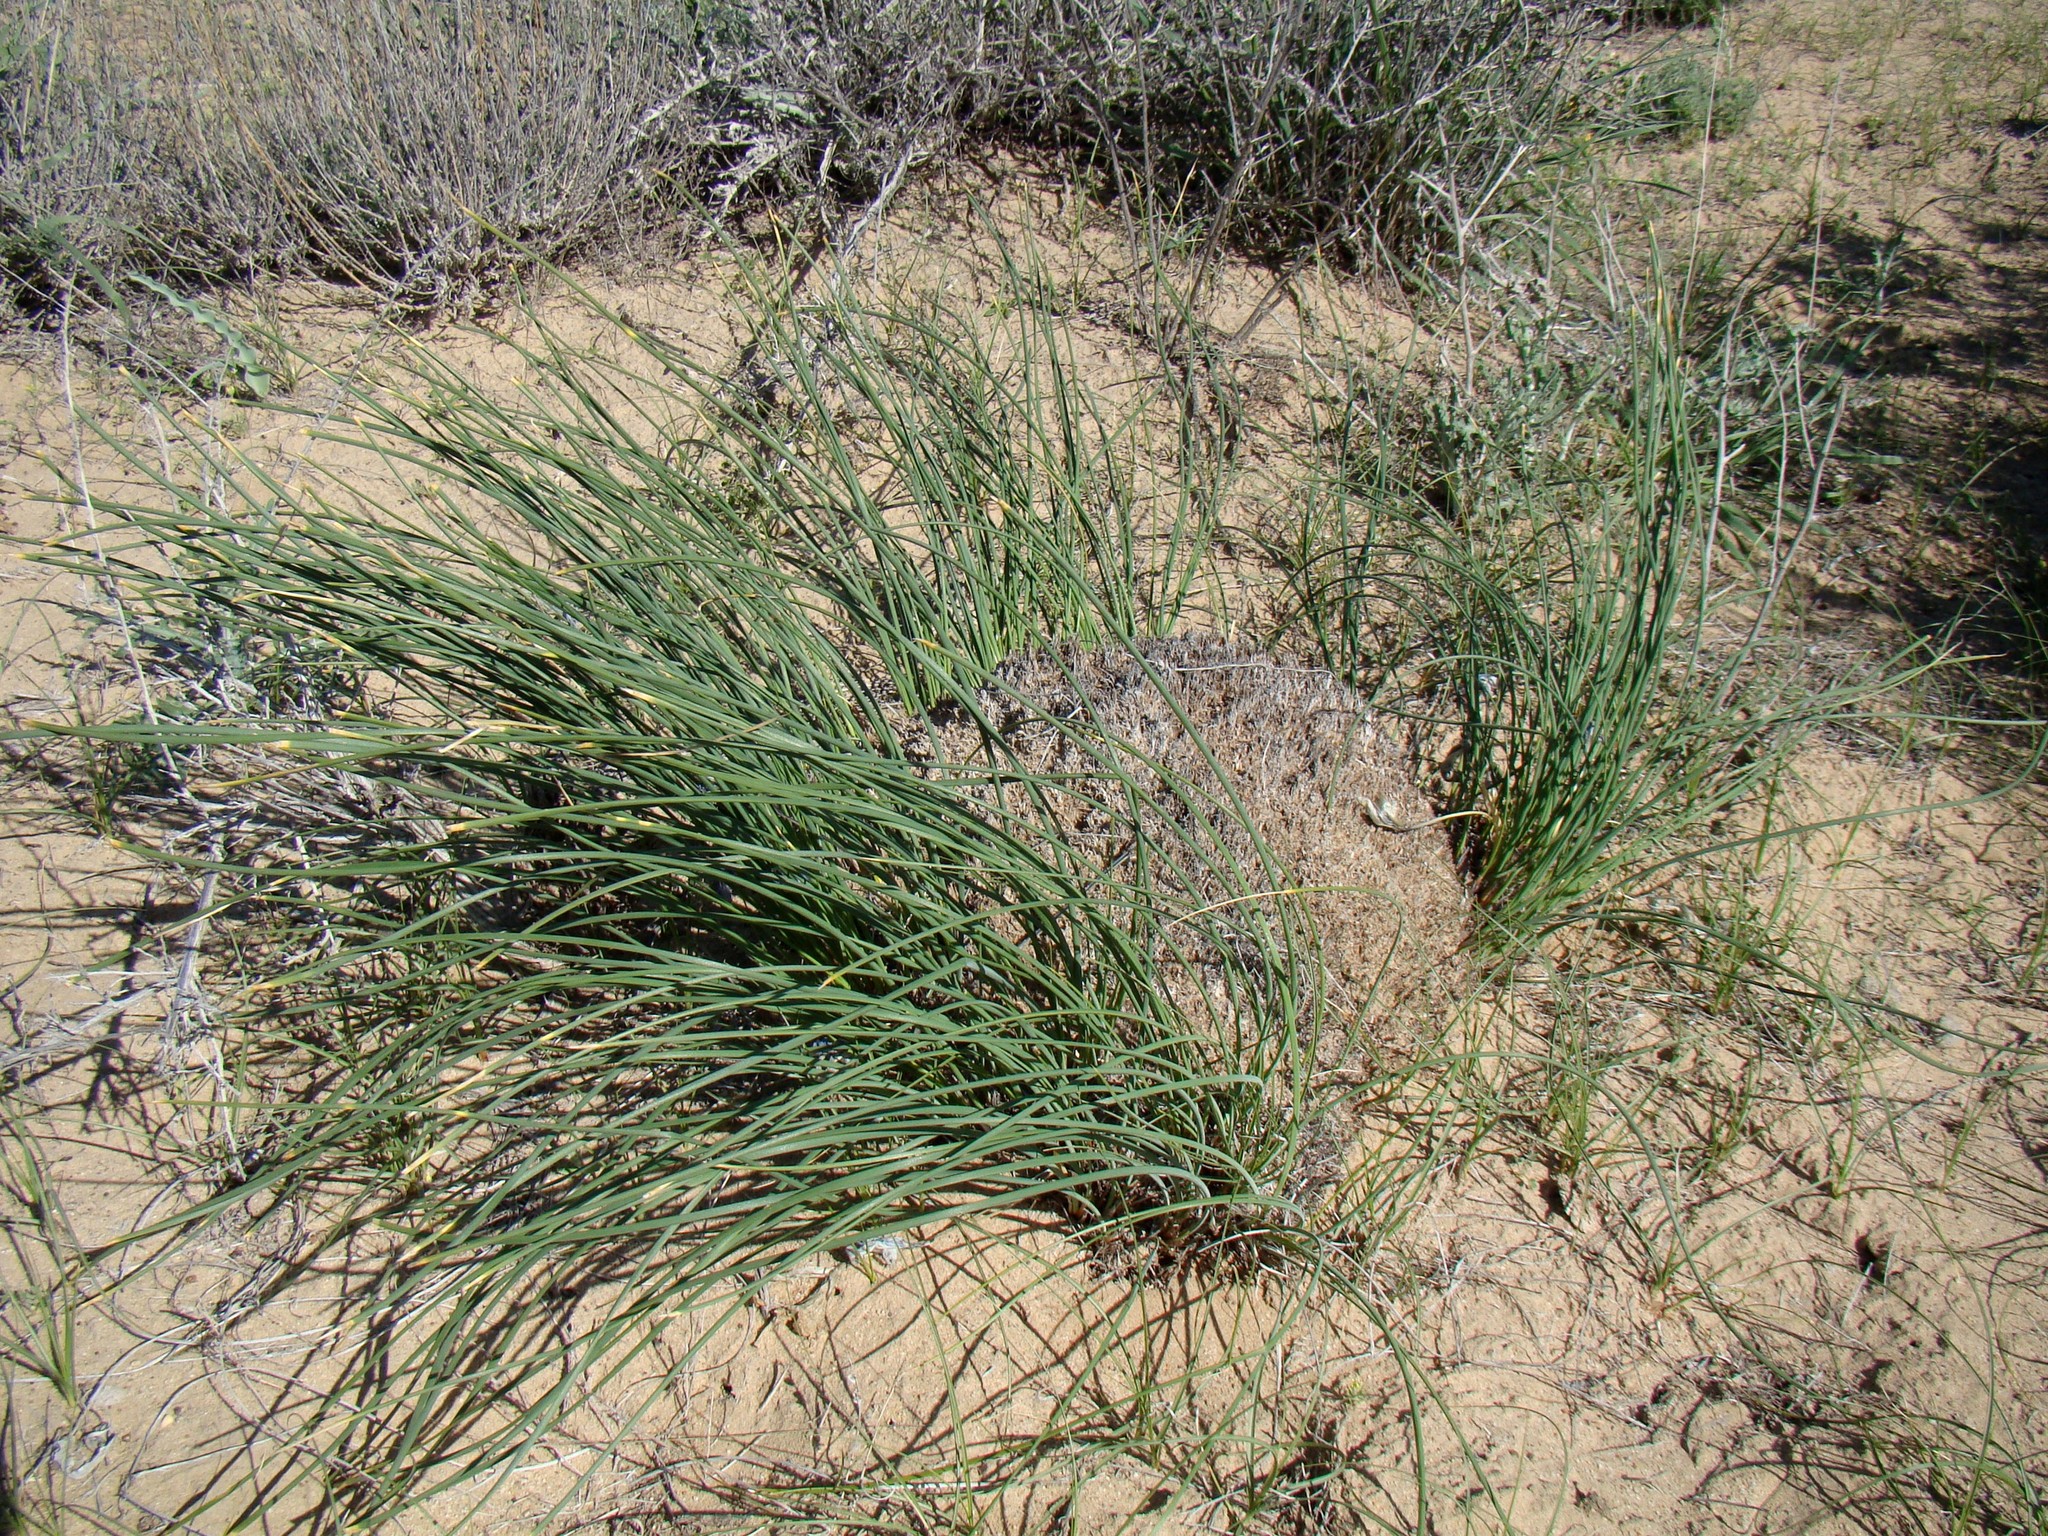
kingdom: Plantae
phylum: Tracheophyta
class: Liliopsida
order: Asparagales
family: Iridaceae
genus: Iris
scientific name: Iris tenuifolia
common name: Slender-leaf iris
